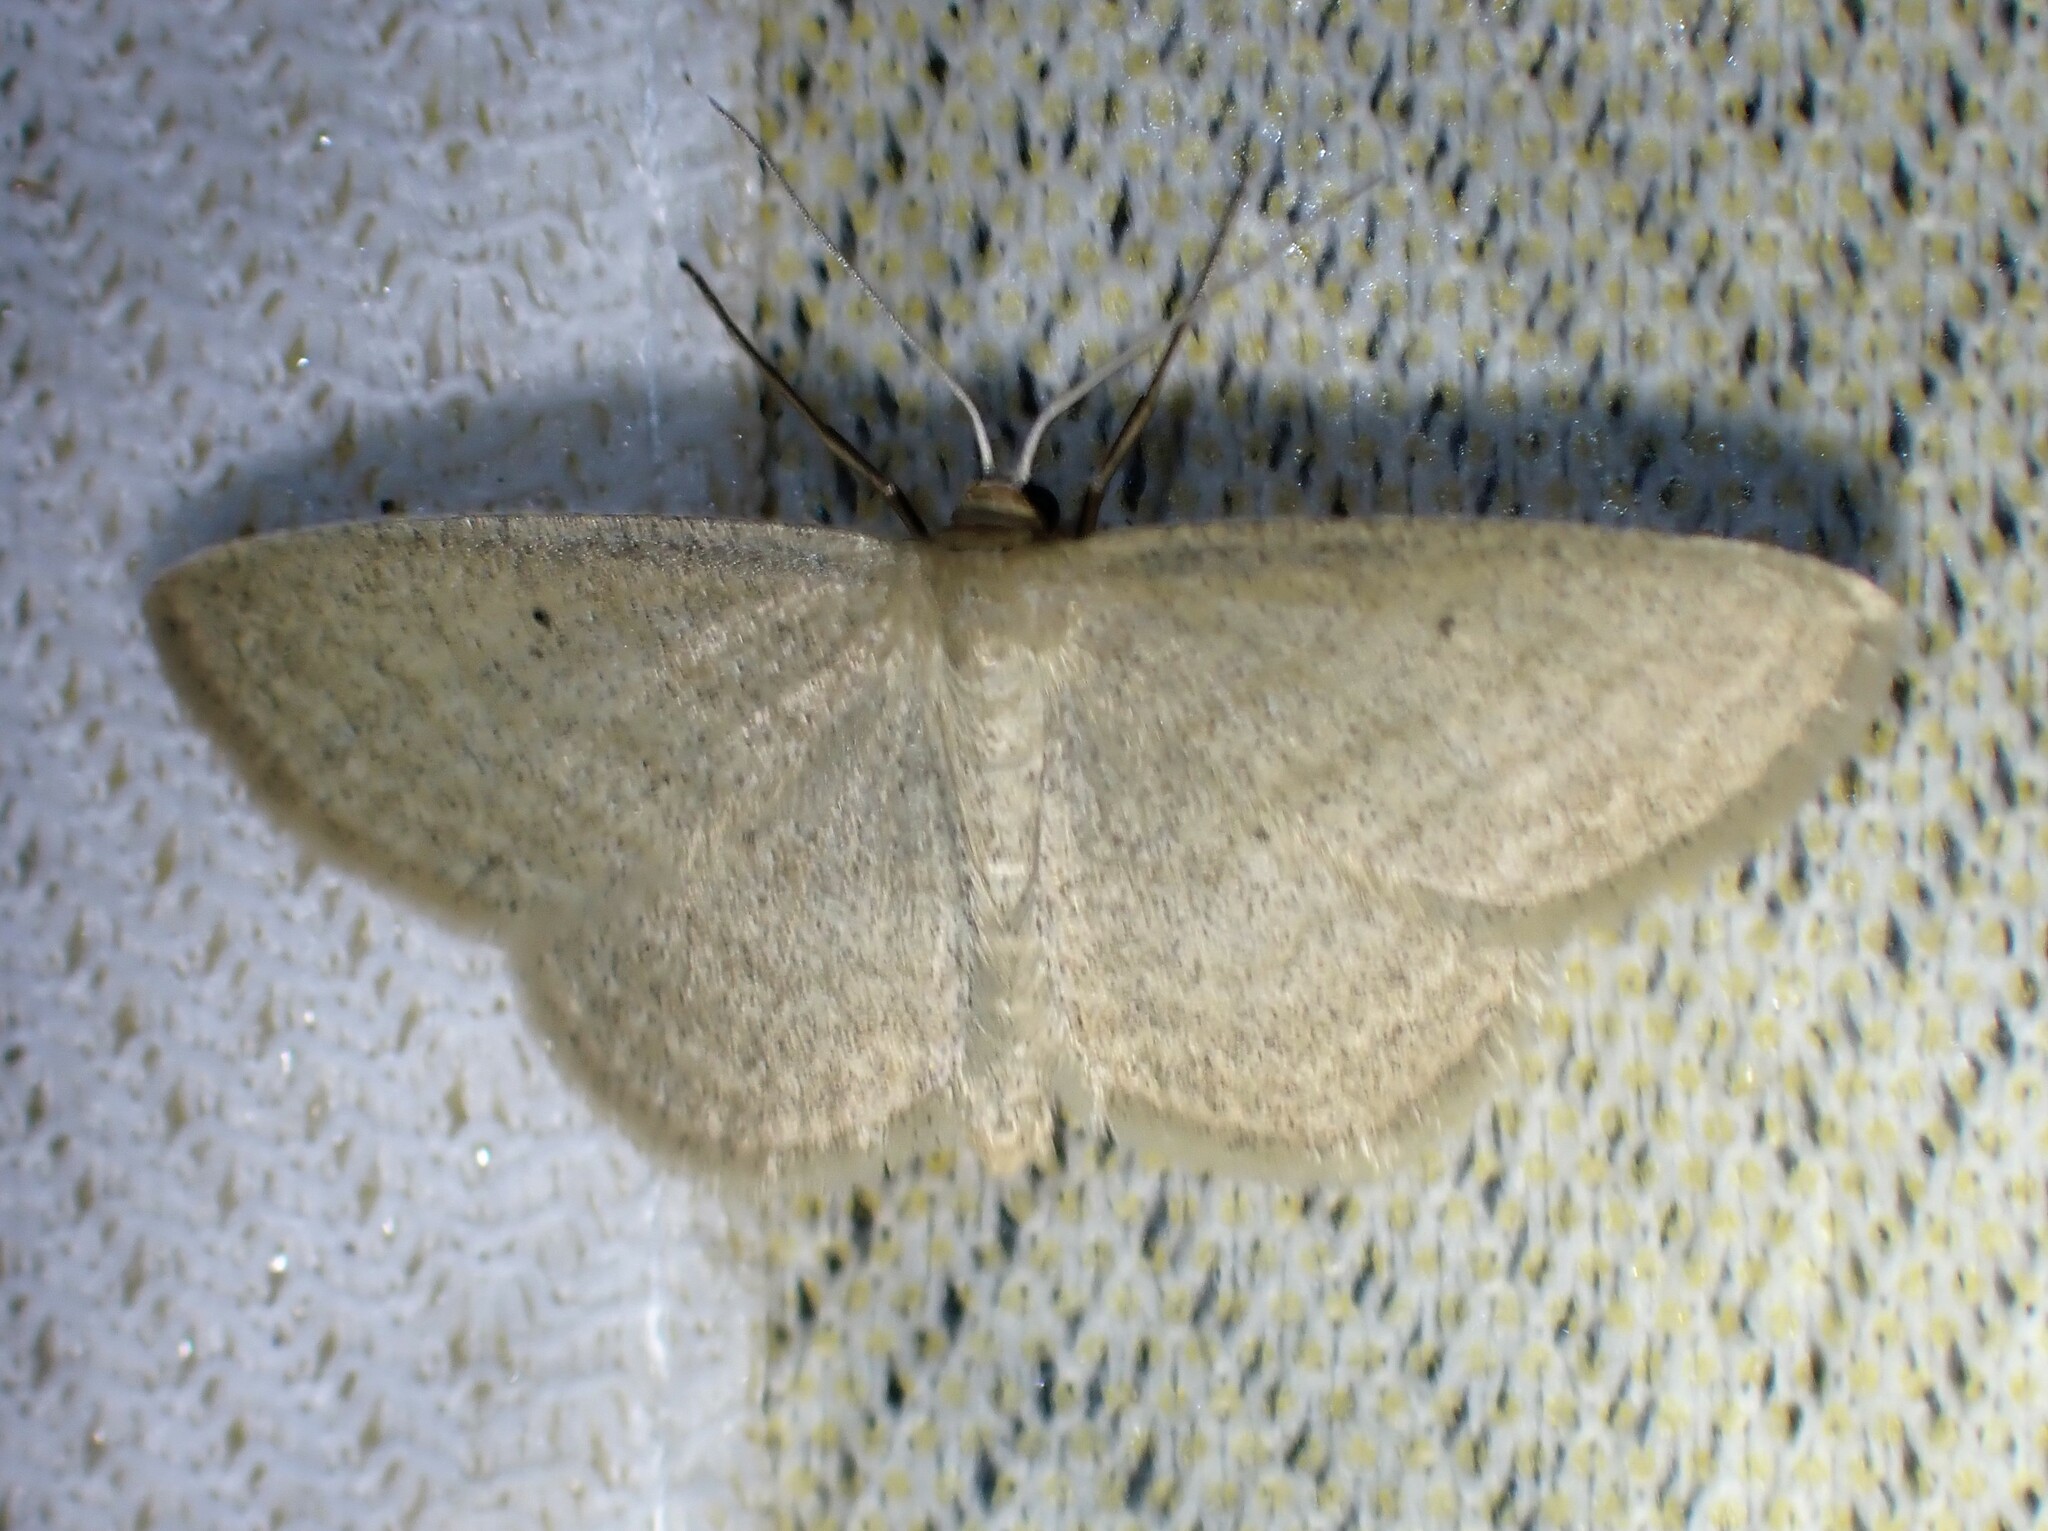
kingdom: Animalia
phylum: Arthropoda
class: Insecta
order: Lepidoptera
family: Geometridae
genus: Scopula
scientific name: Scopula inductata
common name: Soft-lined wave
